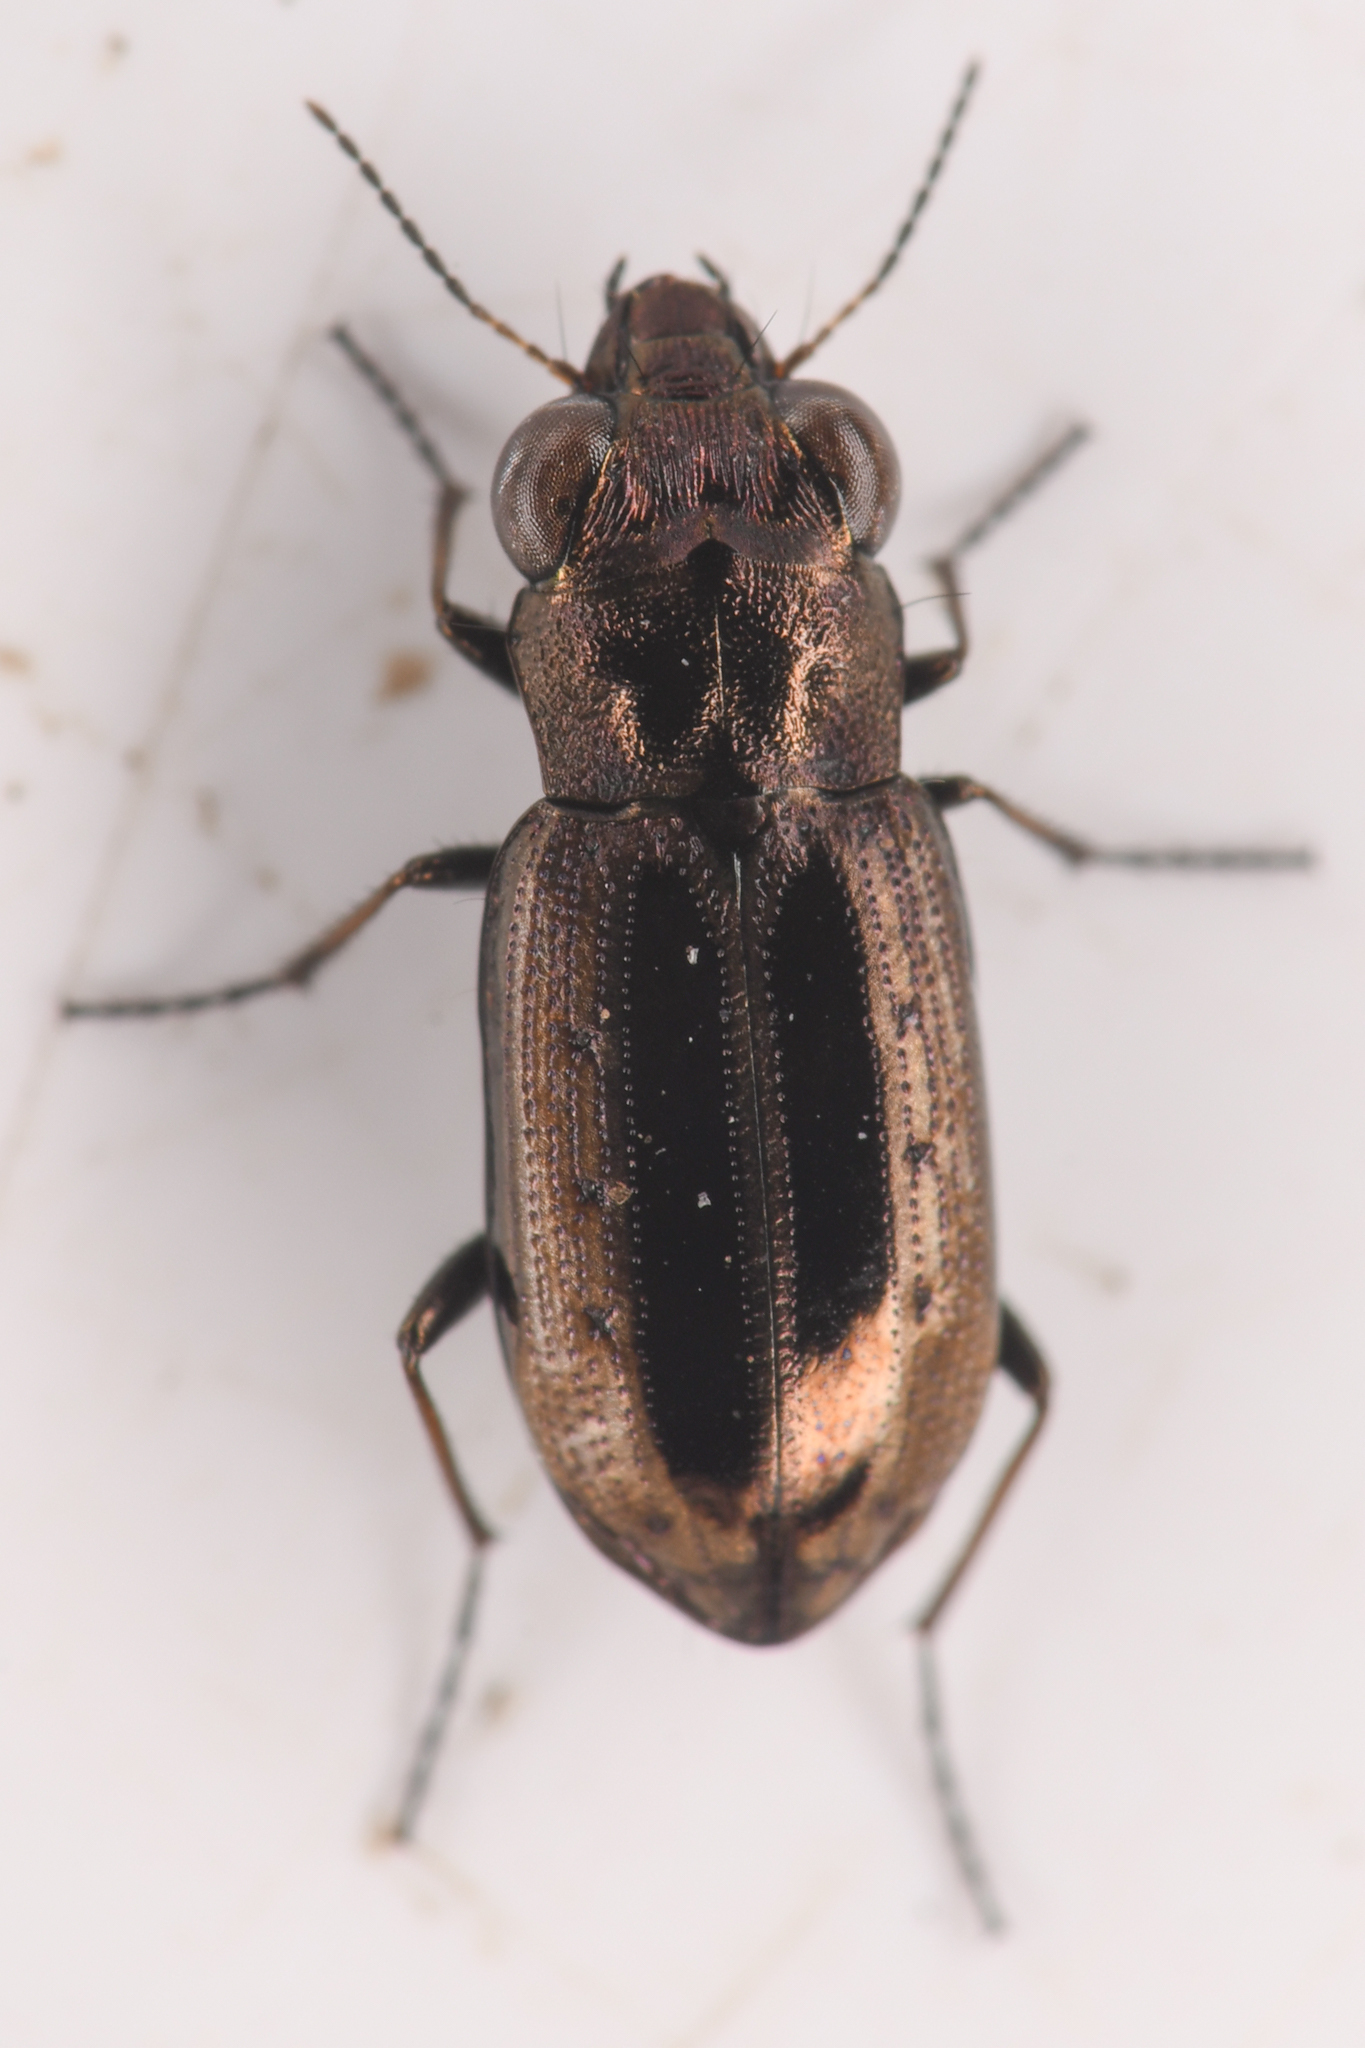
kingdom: Animalia
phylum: Arthropoda
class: Insecta
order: Coleoptera
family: Carabidae
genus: Notiophilus
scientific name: Notiophilus semiopacus
